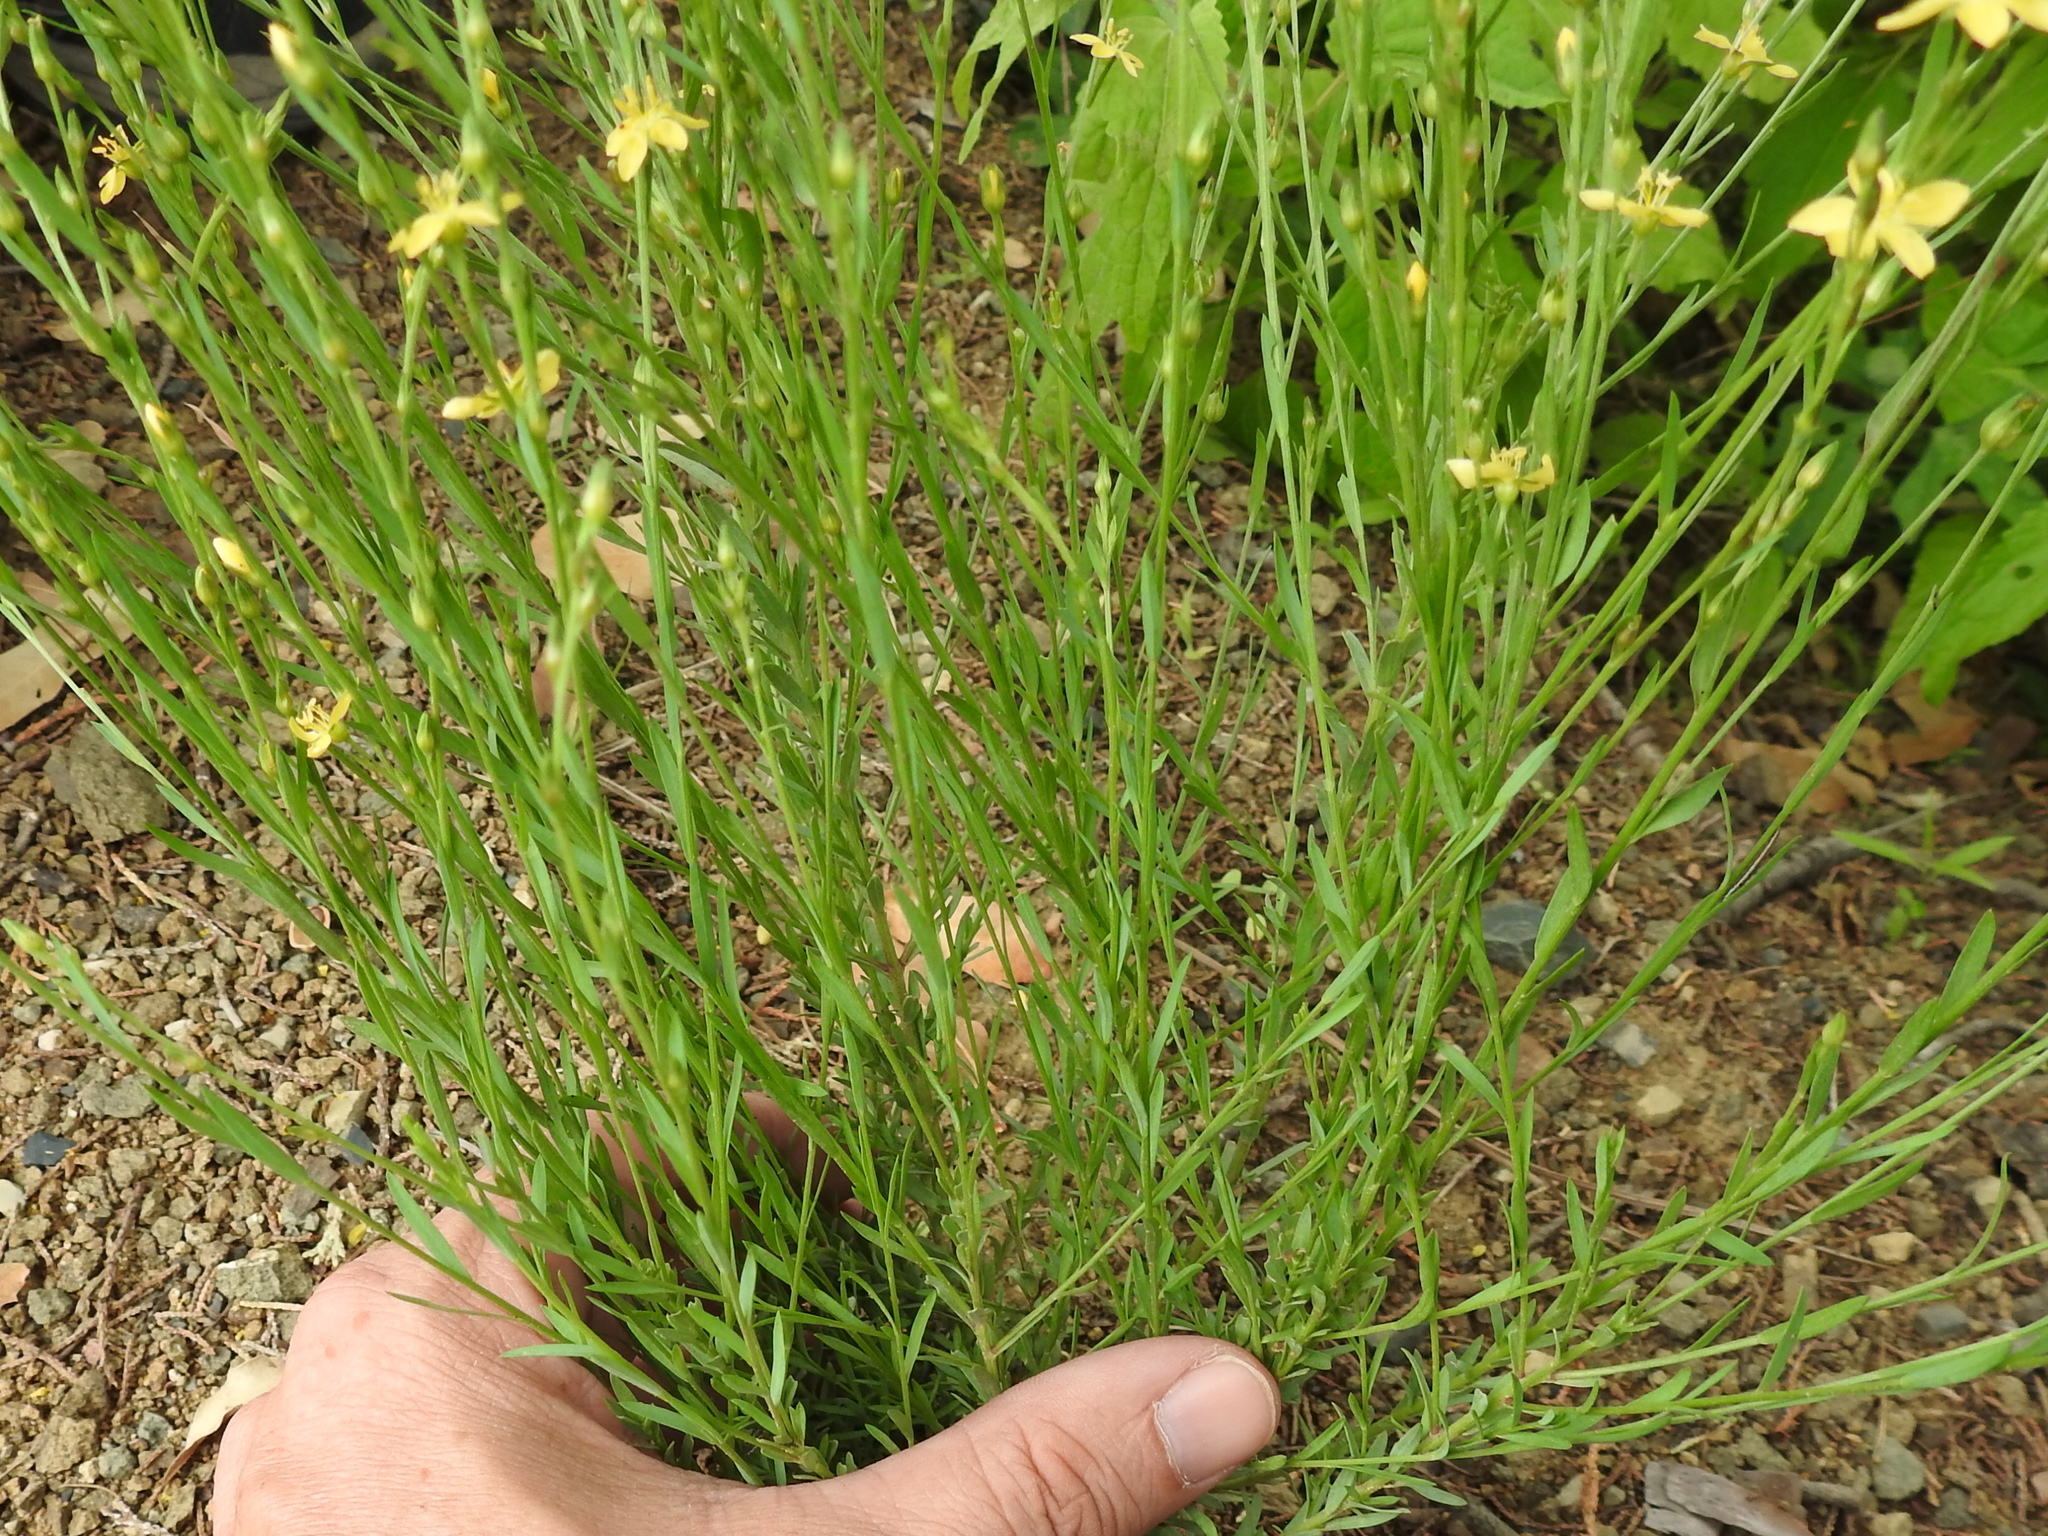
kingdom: Plantae
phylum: Tracheophyta
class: Magnoliopsida
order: Malpighiales
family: Linaceae
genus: Linum
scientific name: Linum neomexicanum
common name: New mexico yellow flax
